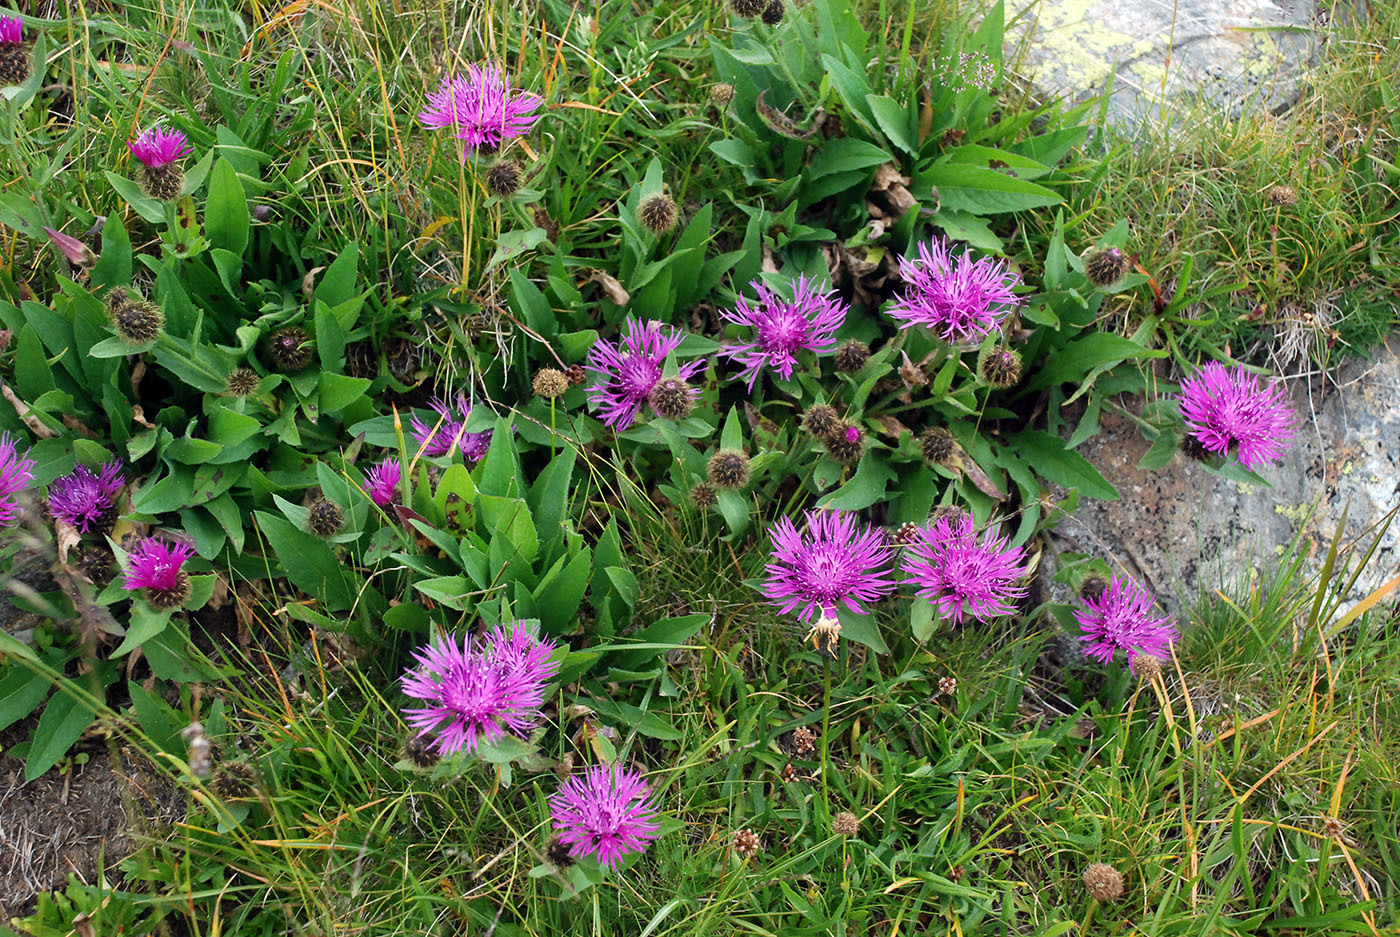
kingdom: Plantae
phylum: Tracheophyta
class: Magnoliopsida
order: Asterales
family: Asteraceae
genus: Centaurea
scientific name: Centaurea kerneriana
